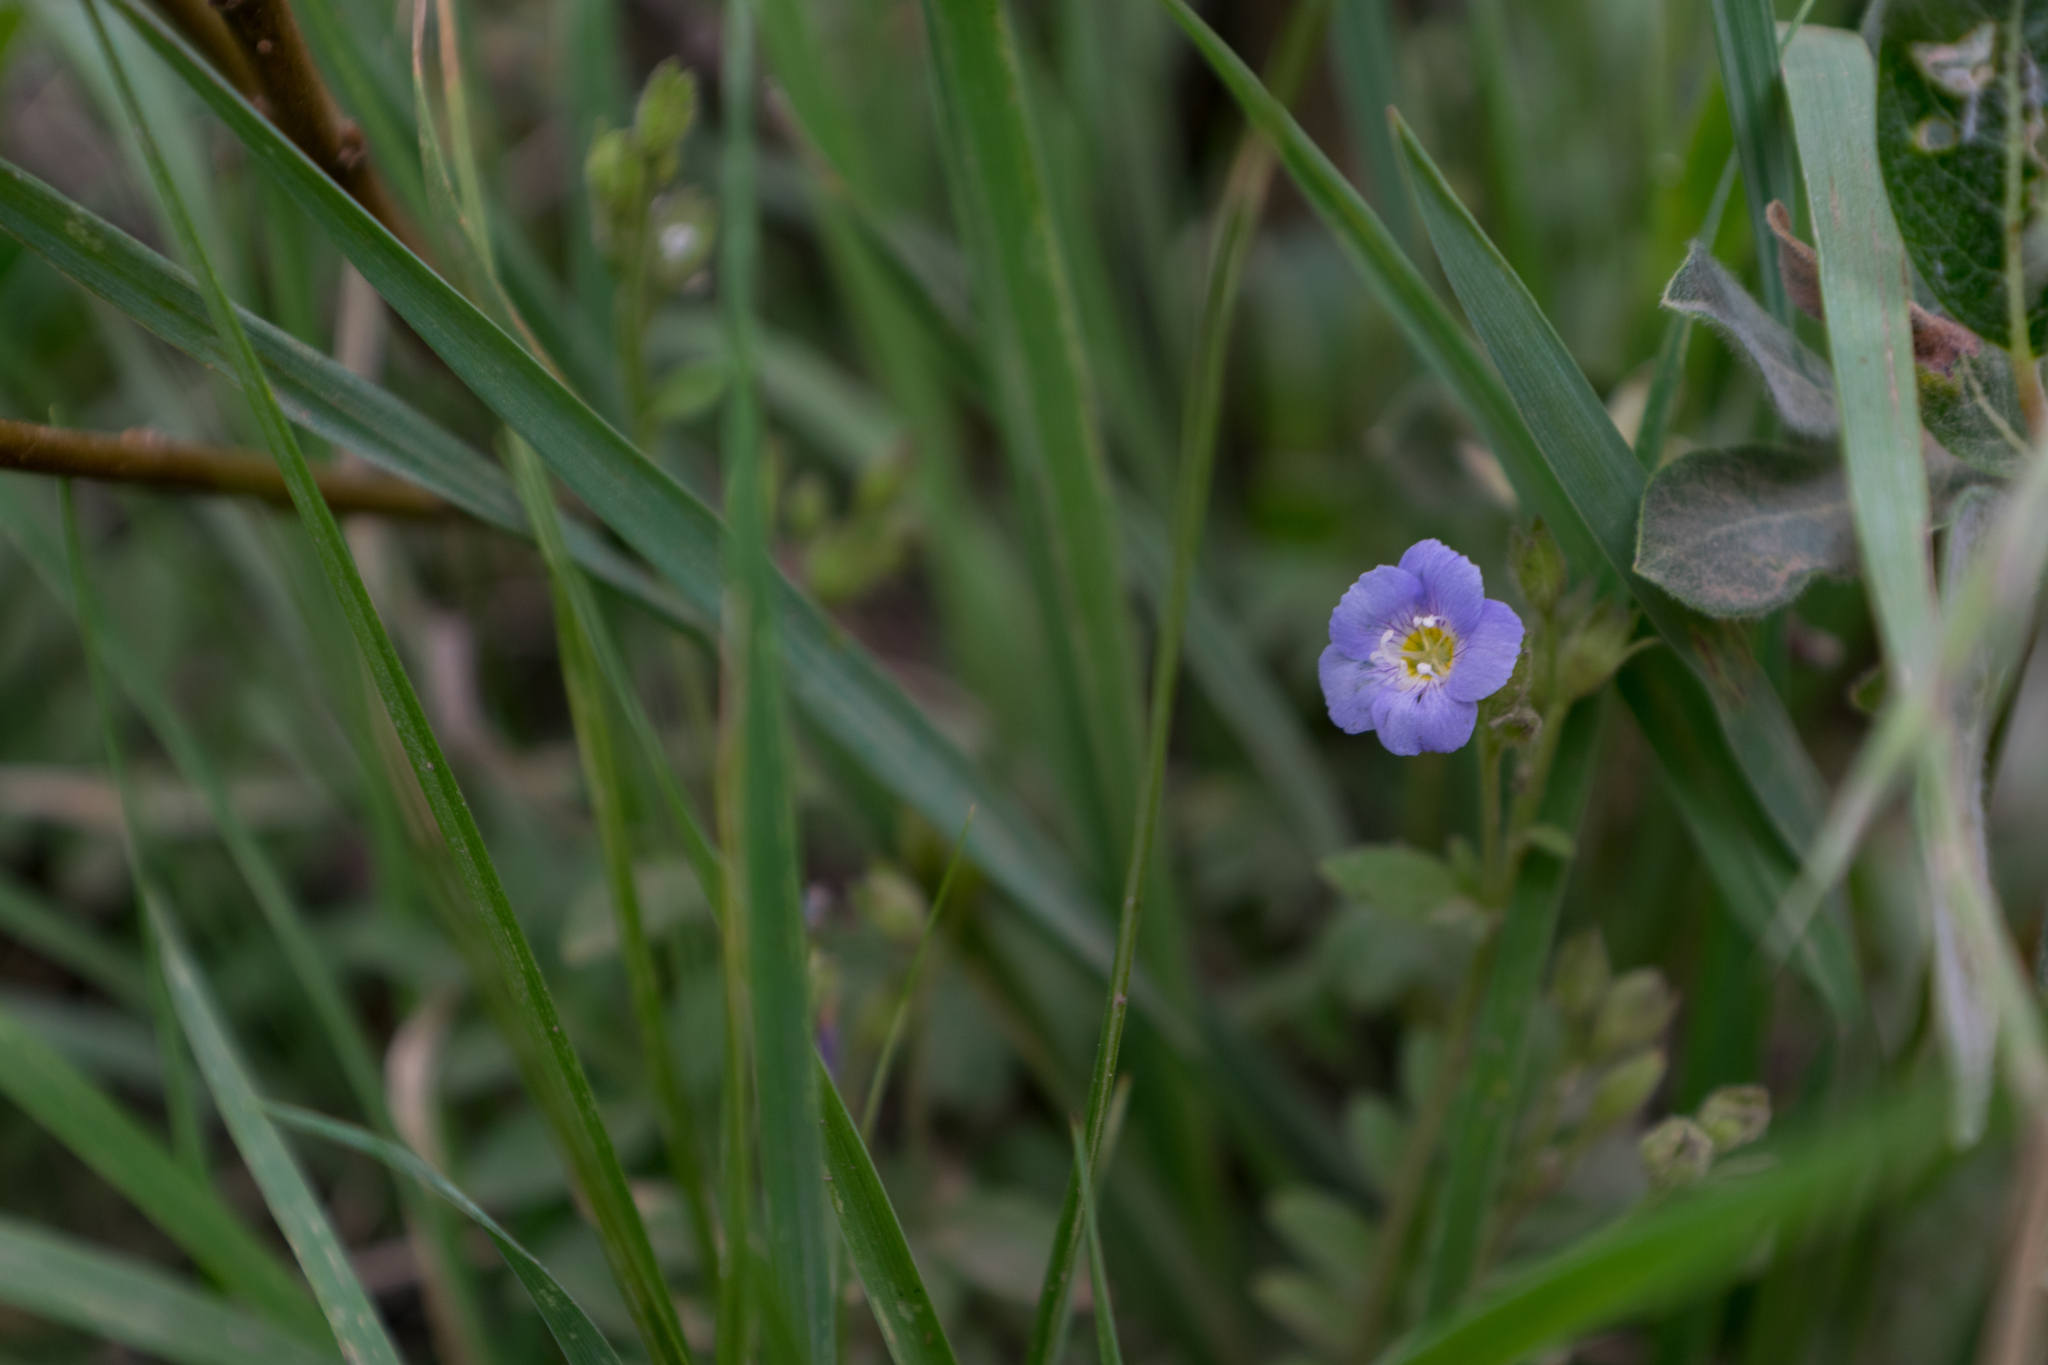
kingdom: Plantae
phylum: Tracheophyta
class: Magnoliopsida
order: Ericales
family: Polemoniaceae
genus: Polemonium
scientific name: Polemonium pulcherrimum
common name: Short jacob's-ladder
